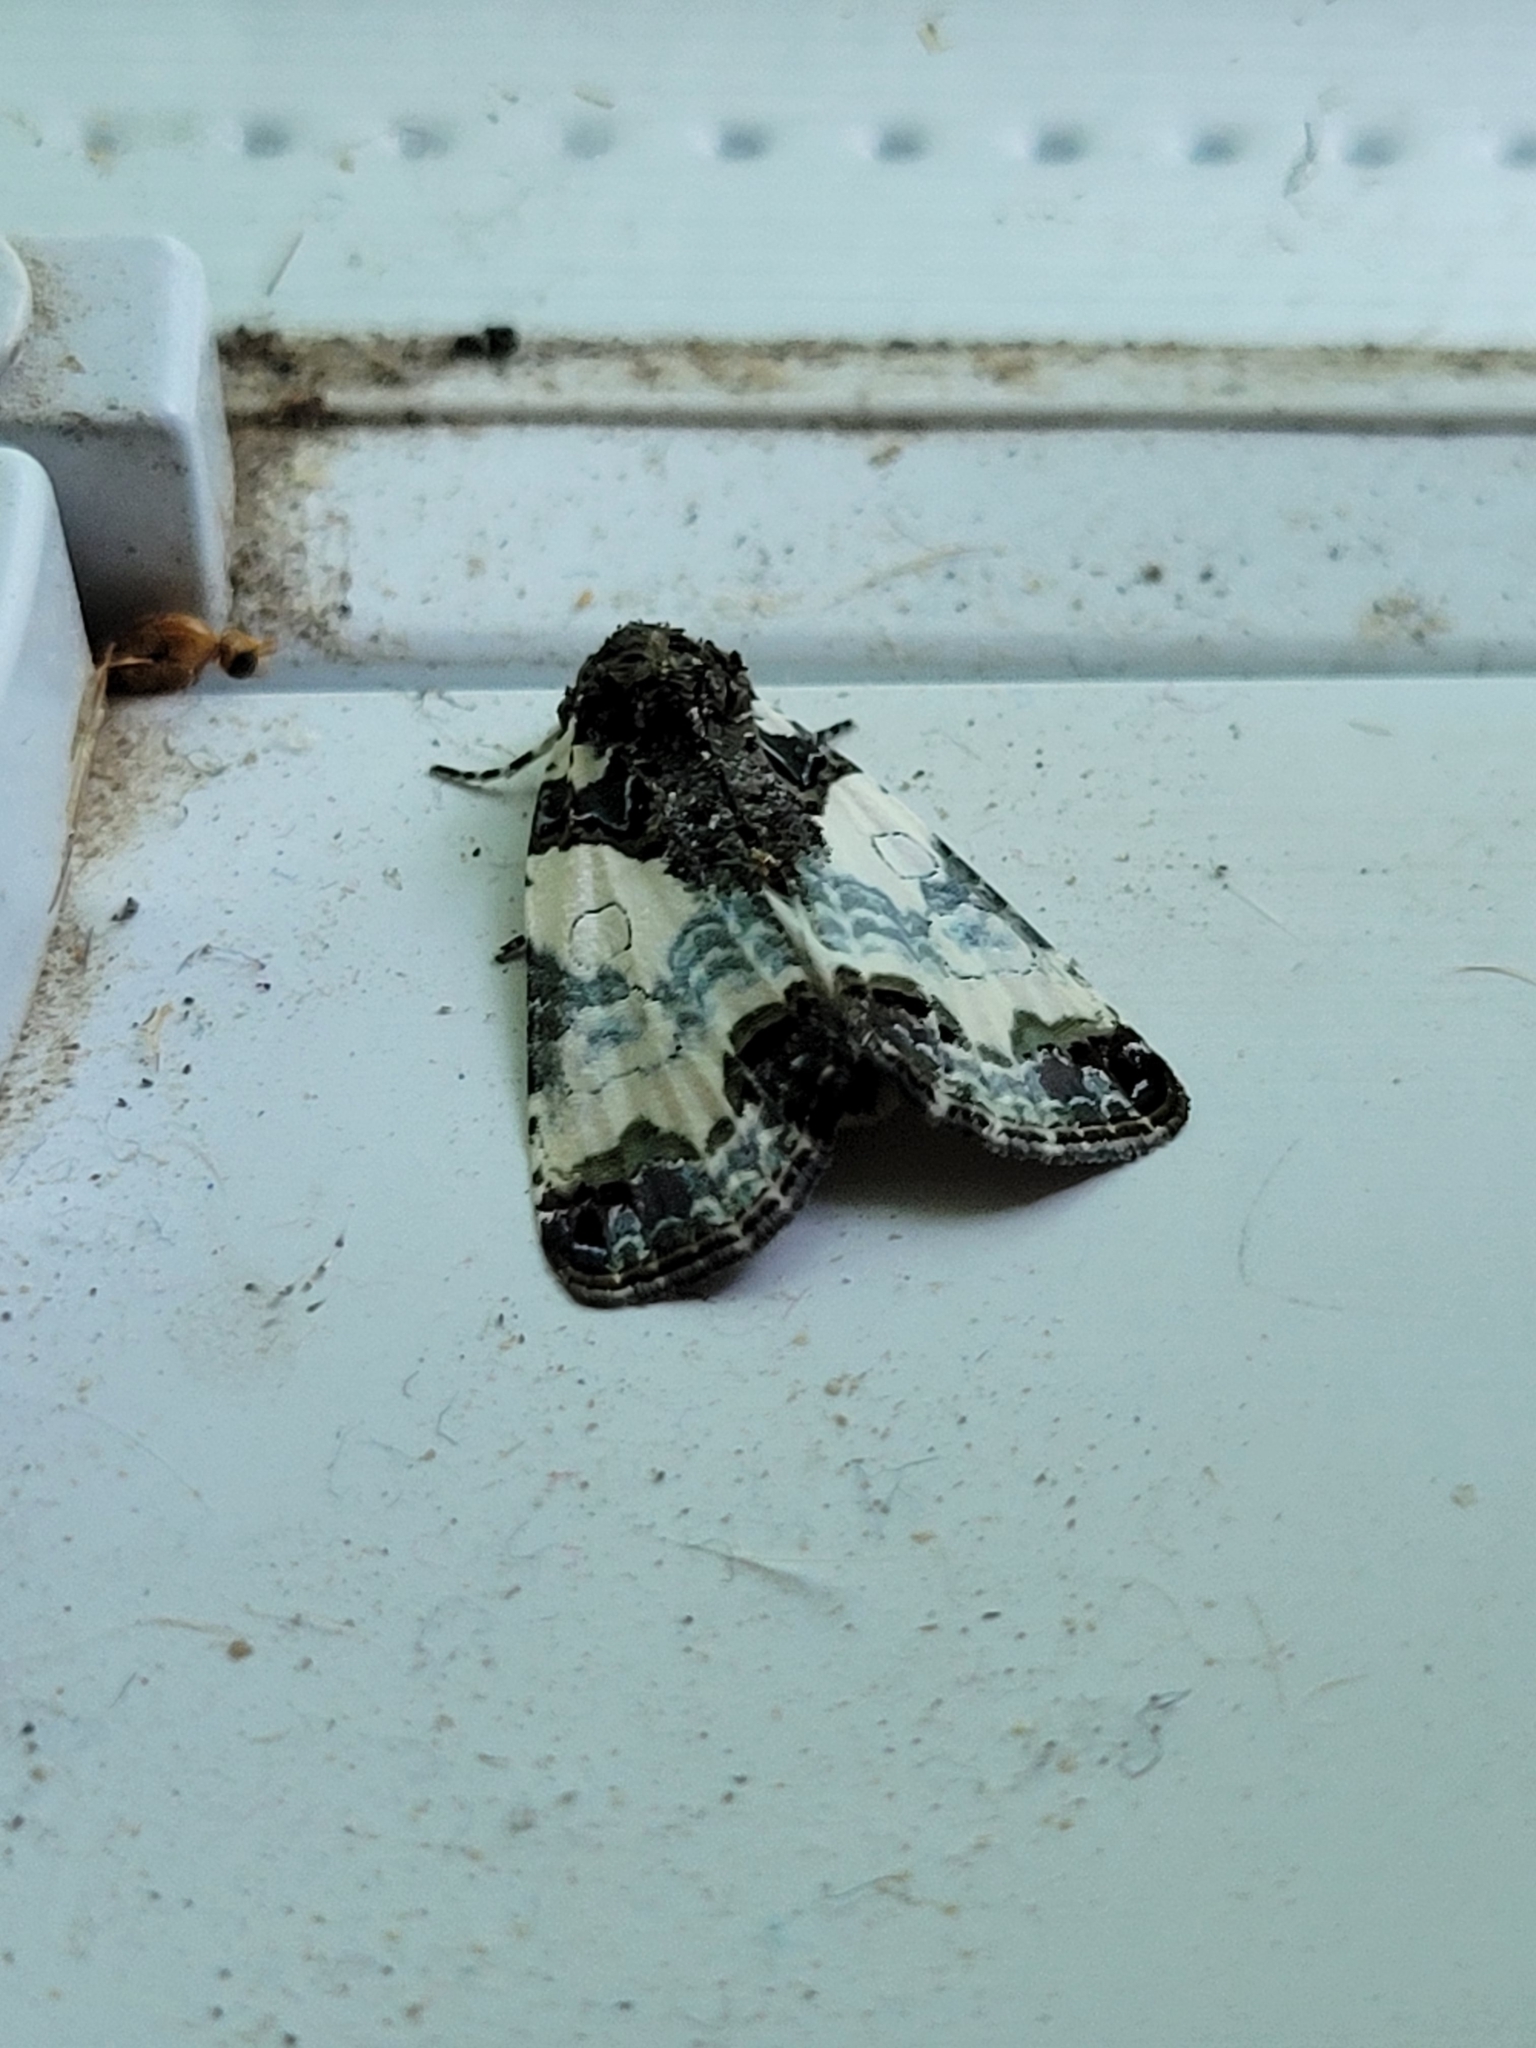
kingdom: Animalia
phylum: Arthropoda
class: Insecta
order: Lepidoptera
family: Noctuidae
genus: Cerma
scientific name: Cerma cerintha
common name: Tufted bird-dropping moth
